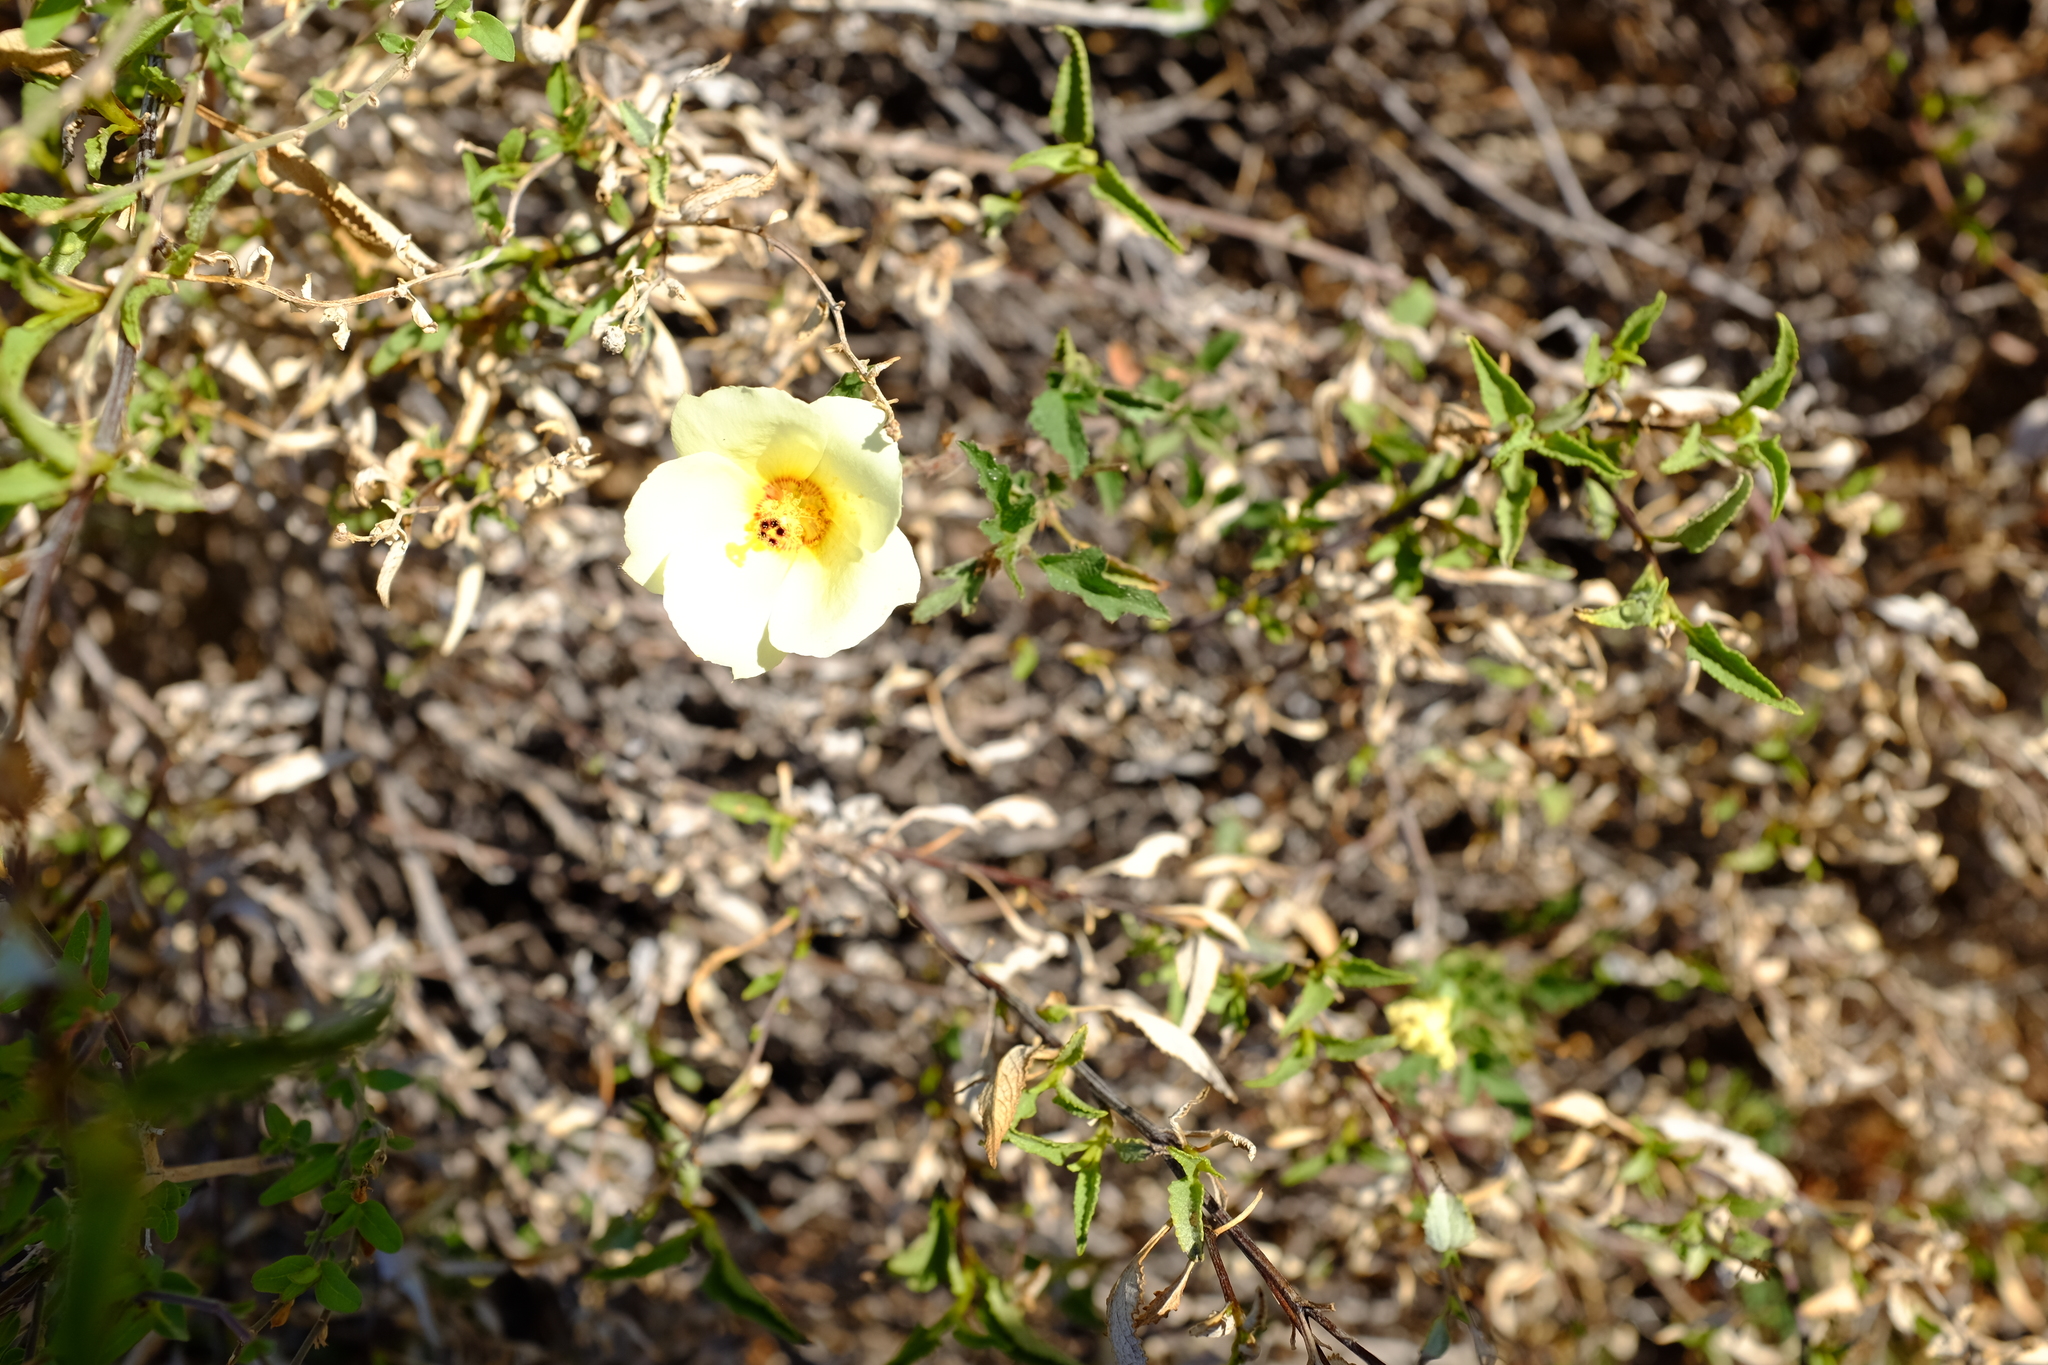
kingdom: Plantae
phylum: Tracheophyta
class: Magnoliopsida
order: Malvales
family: Malvaceae
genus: Hibiscus
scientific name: Hibiscus coulteri
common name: Desert rose-mallow
